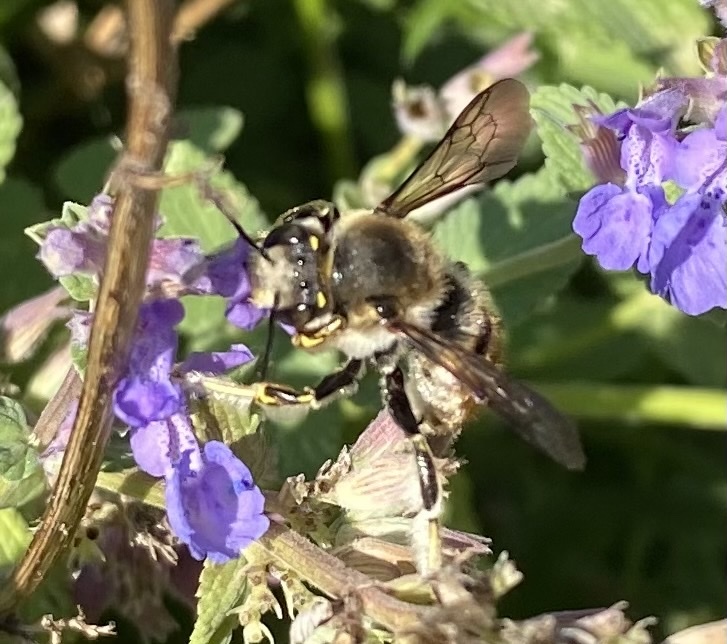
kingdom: Animalia
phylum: Arthropoda
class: Insecta
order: Hymenoptera
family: Megachilidae
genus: Anthidium
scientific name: Anthidium manicatum
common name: Wool carder bee
